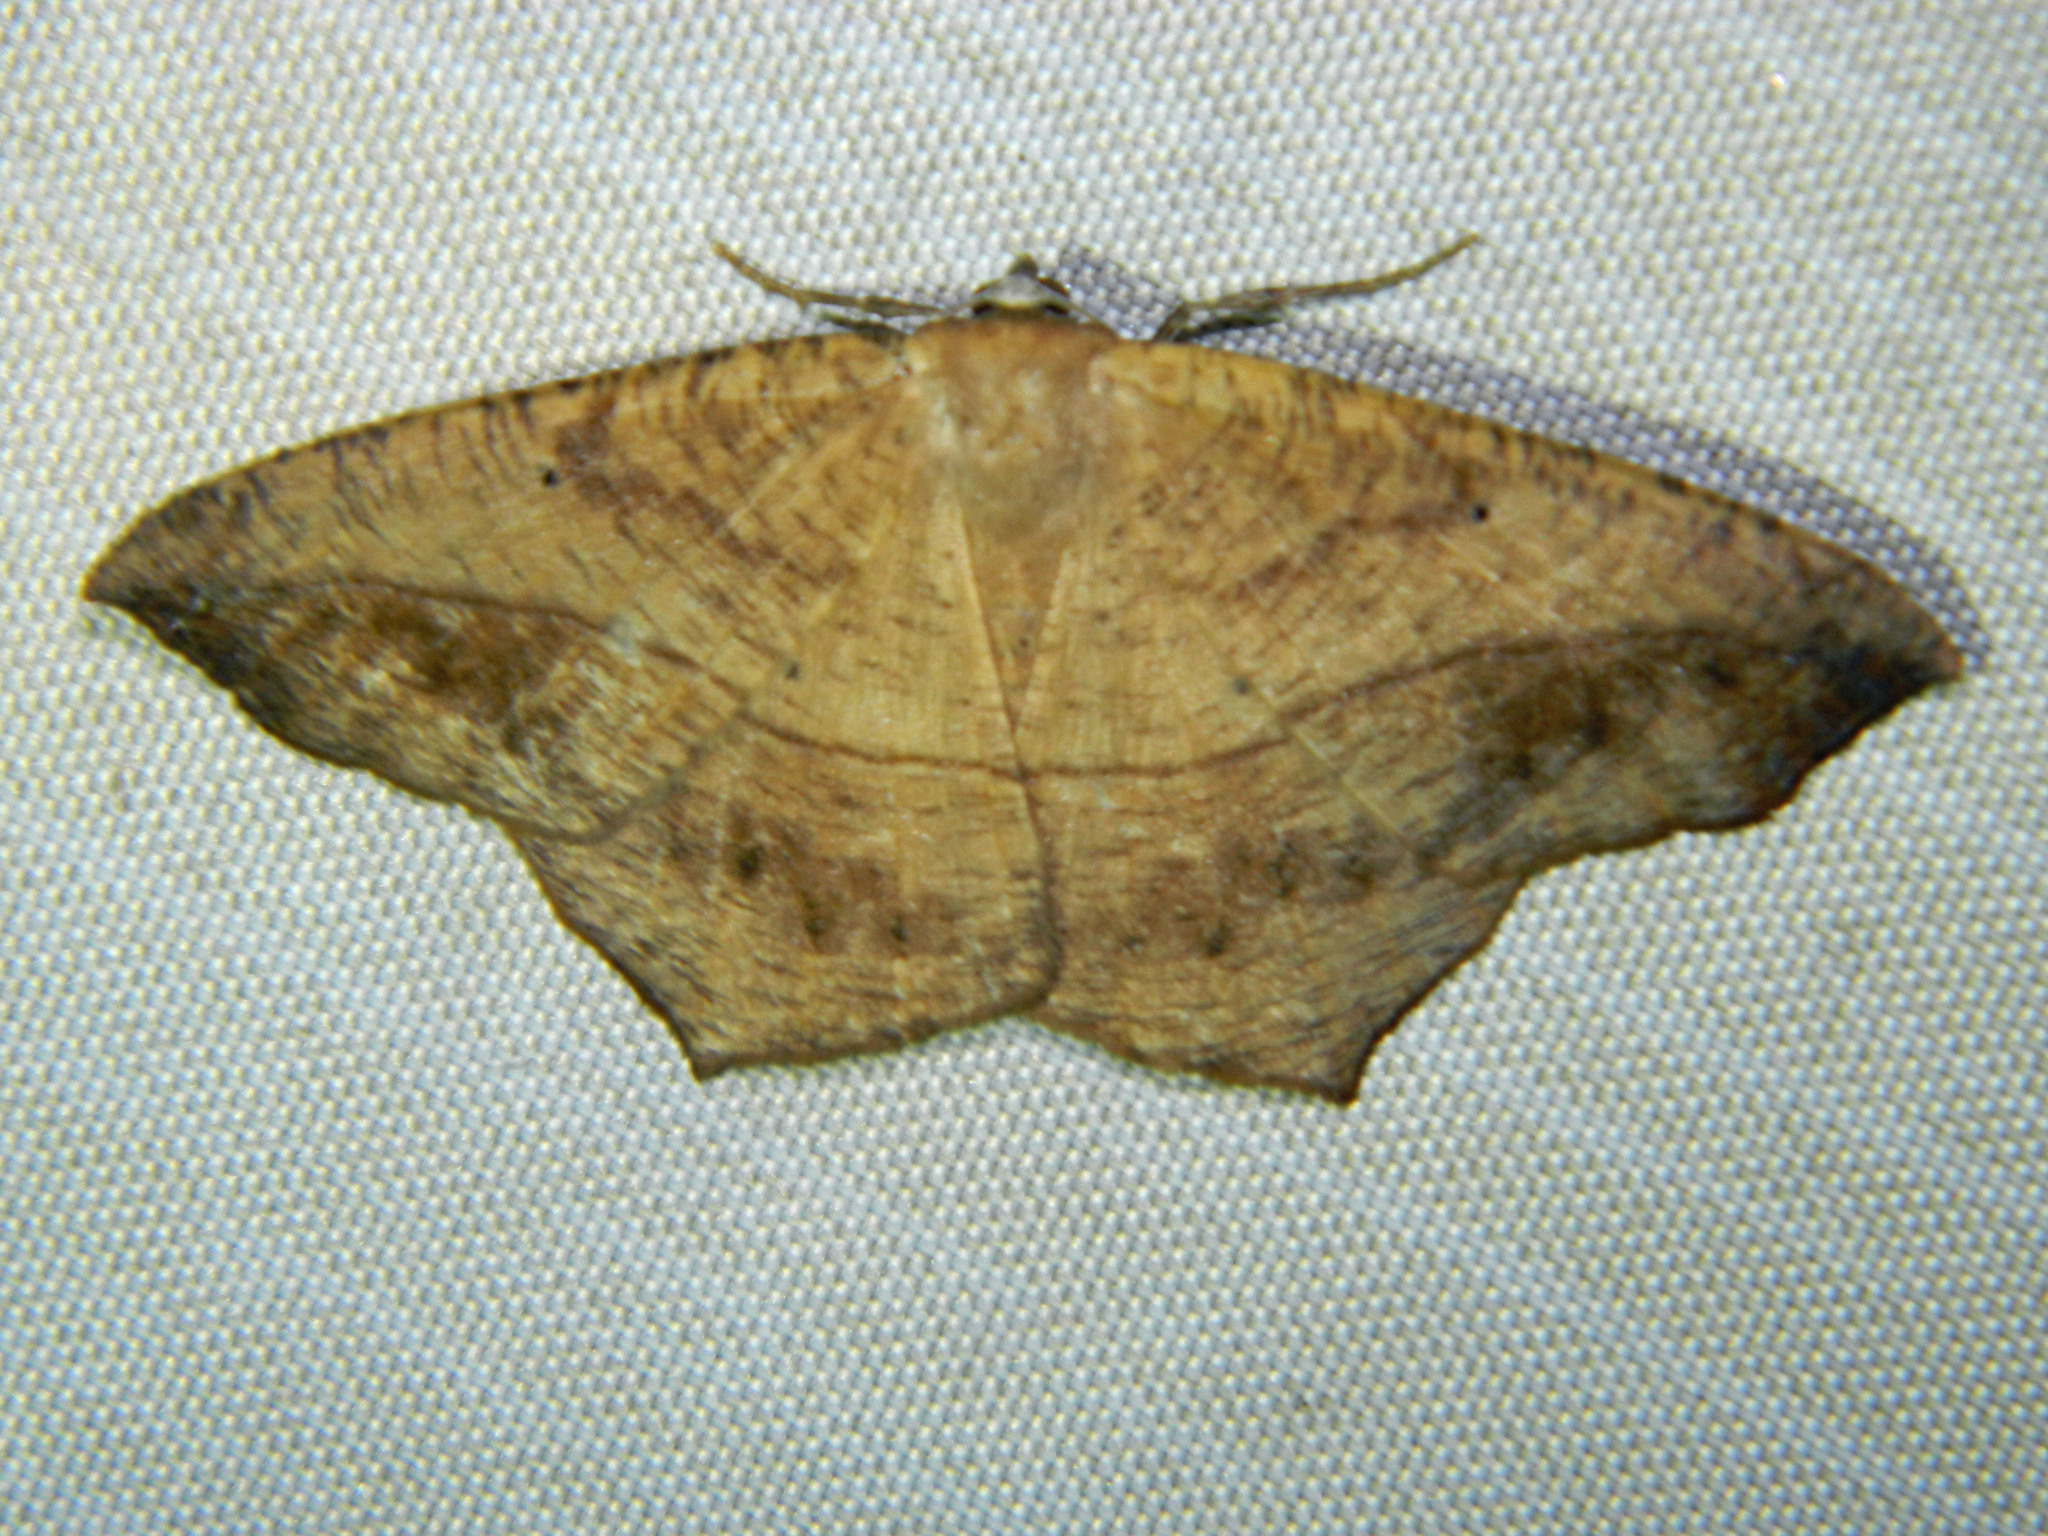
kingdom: Animalia
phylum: Arthropoda
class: Insecta
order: Lepidoptera
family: Geometridae
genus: Prochoerodes
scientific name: Prochoerodes lineola
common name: Large maple spanworm
